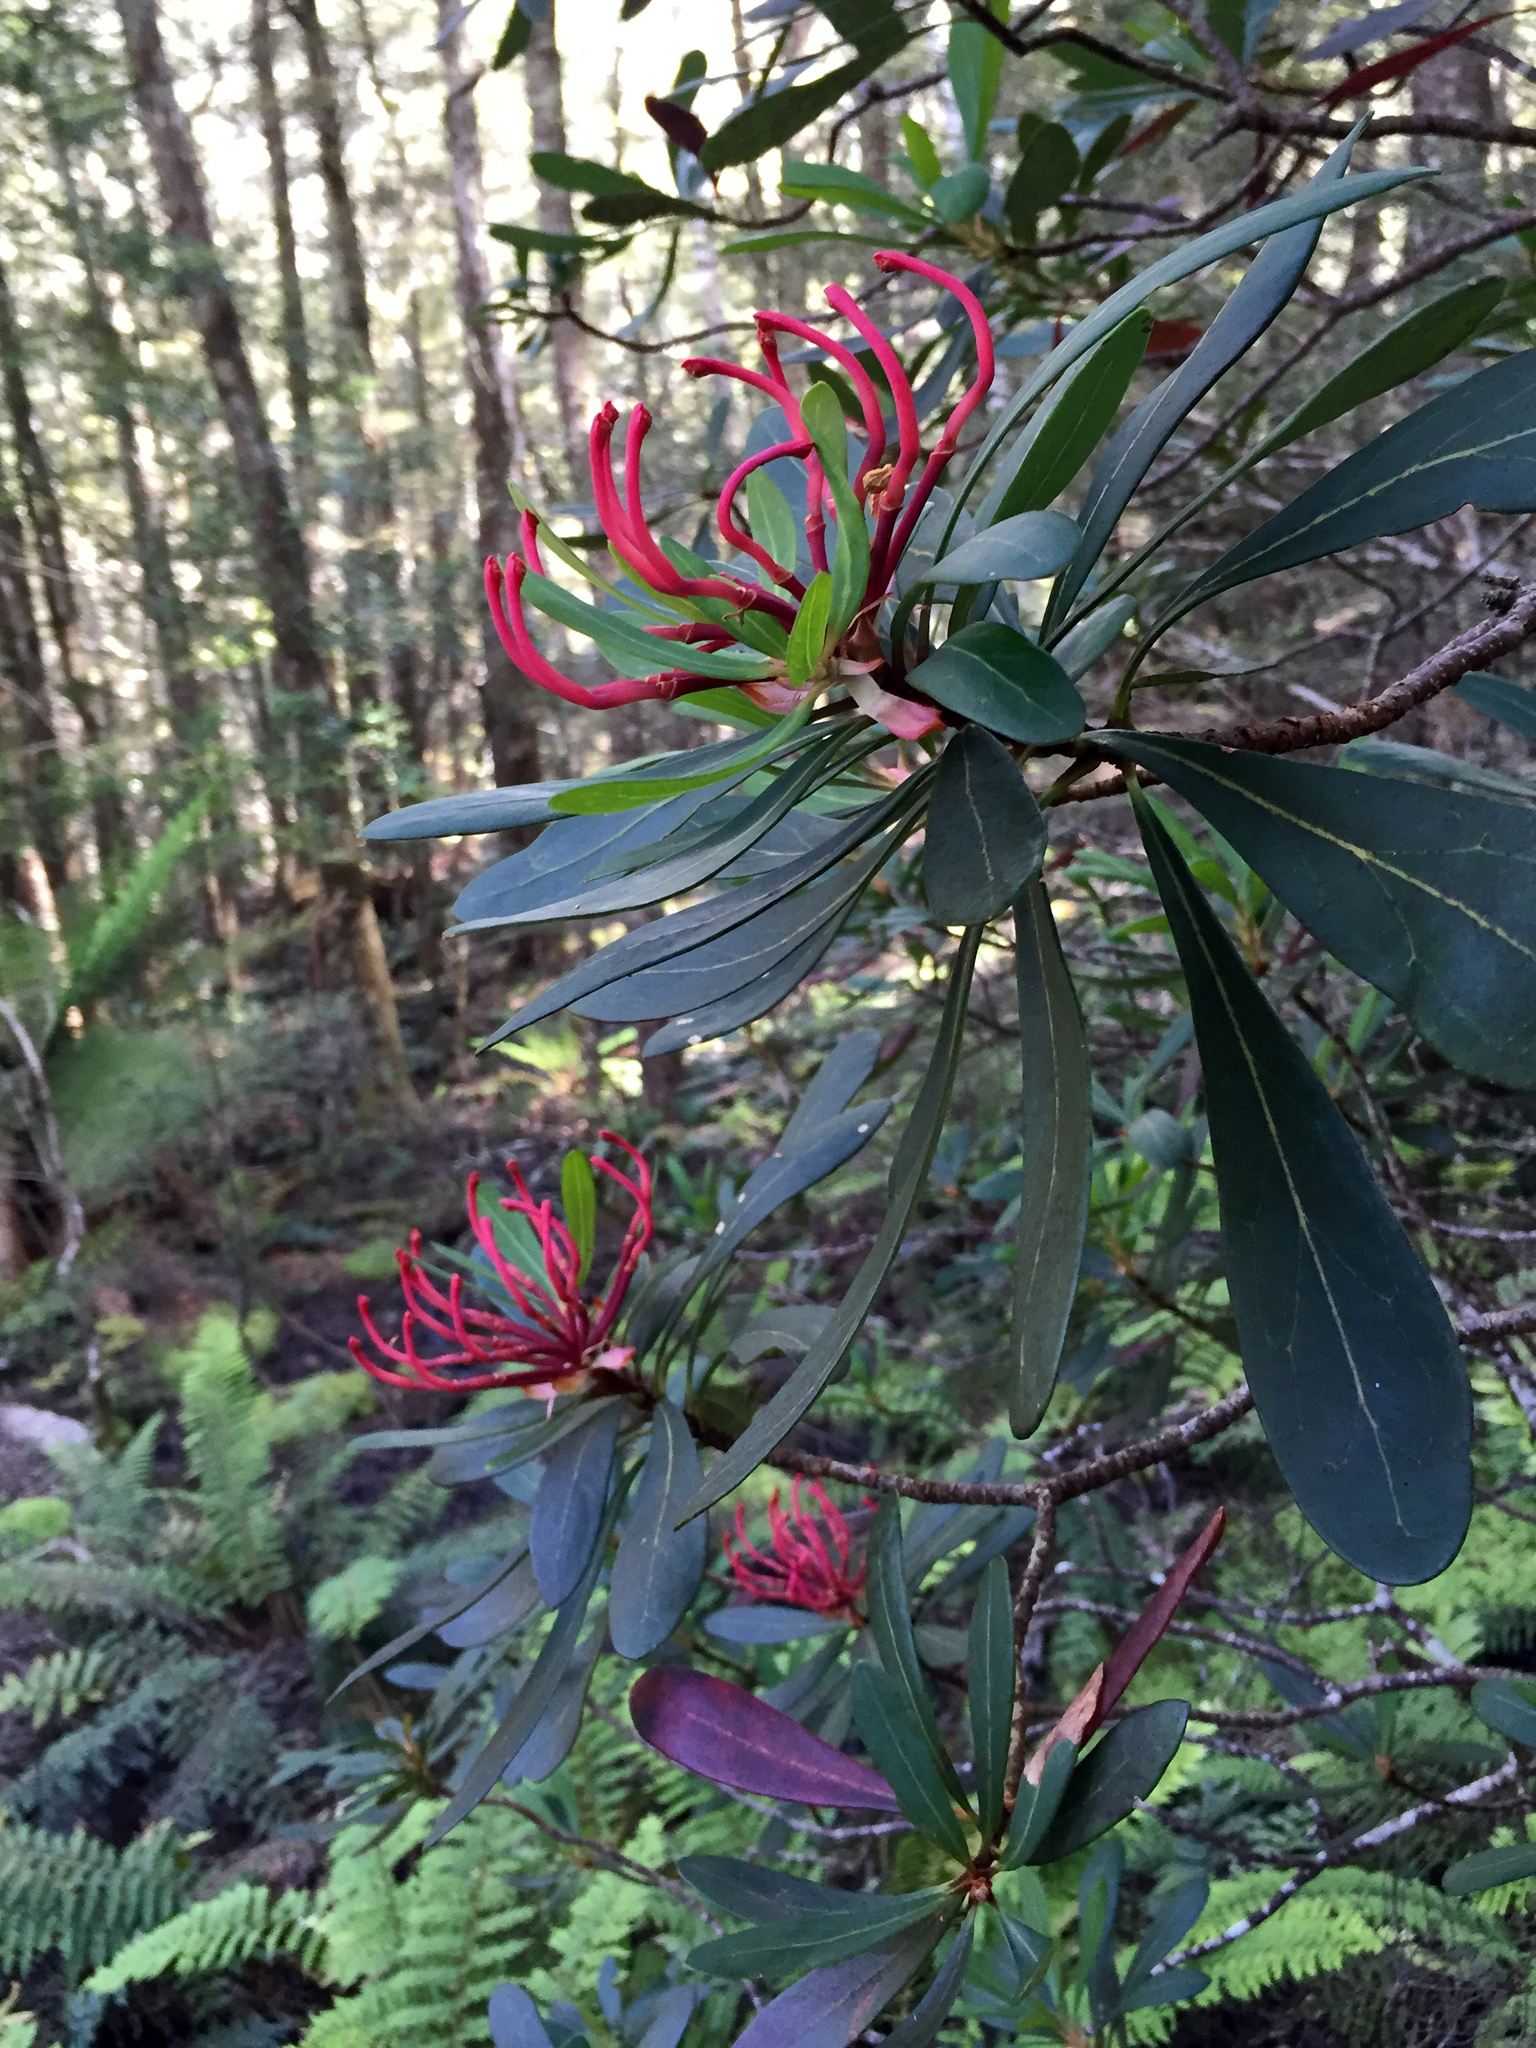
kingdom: Plantae
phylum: Tracheophyta
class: Magnoliopsida
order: Proteales
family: Proteaceae
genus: Telopea
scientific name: Telopea truncata
